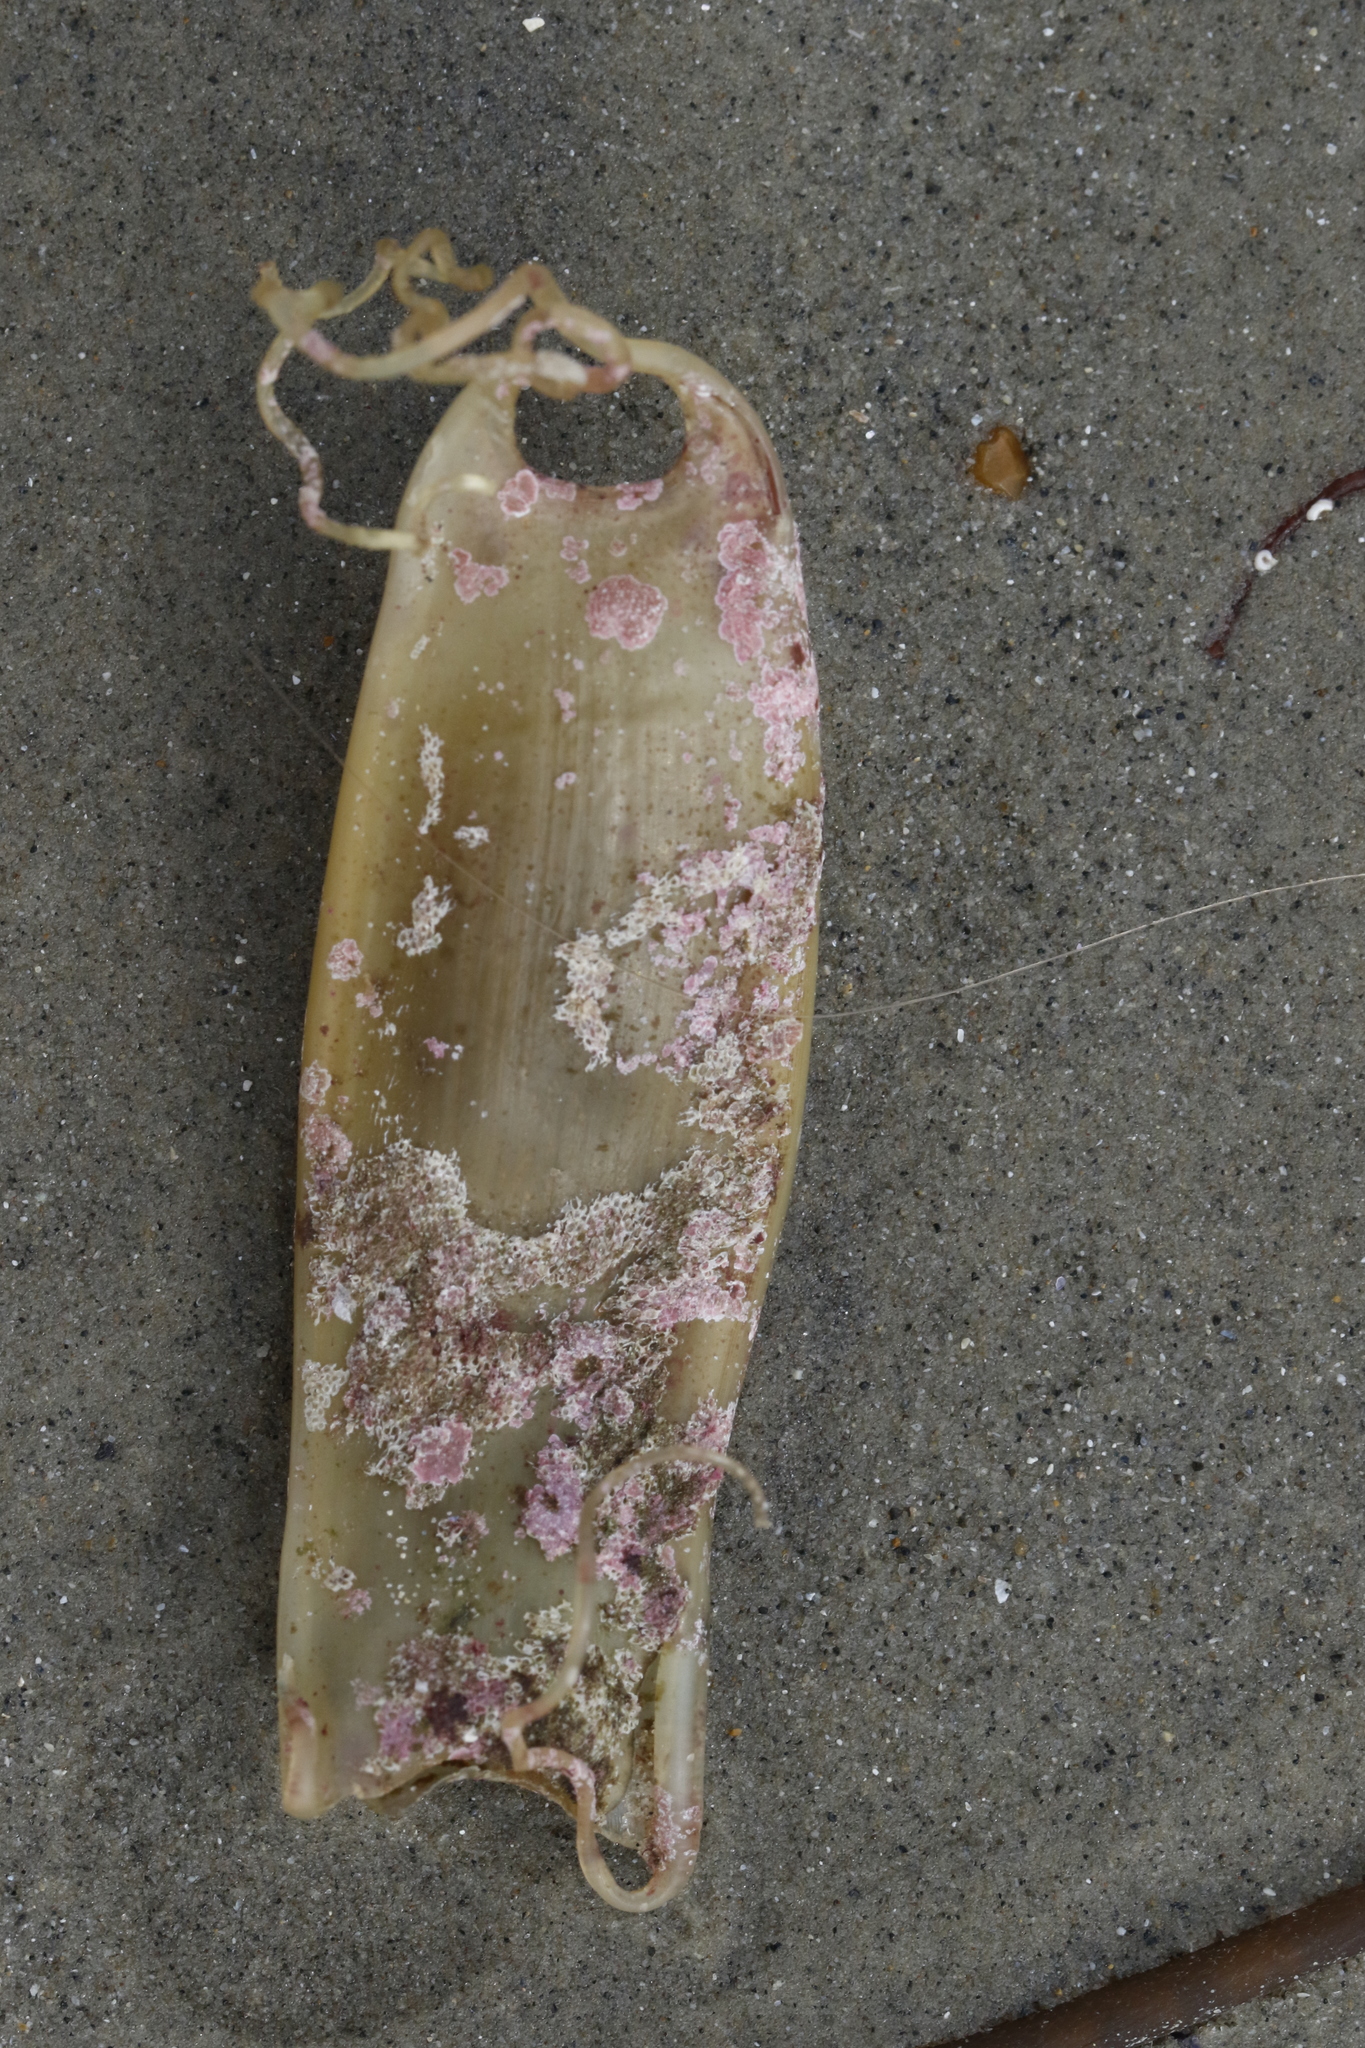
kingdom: Animalia
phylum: Chordata
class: Elasmobranchii
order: Carcharhiniformes
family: Scyliorhinidae
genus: Scyliorhinus
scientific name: Scyliorhinus canicula
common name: Lesser spotted dogfish
